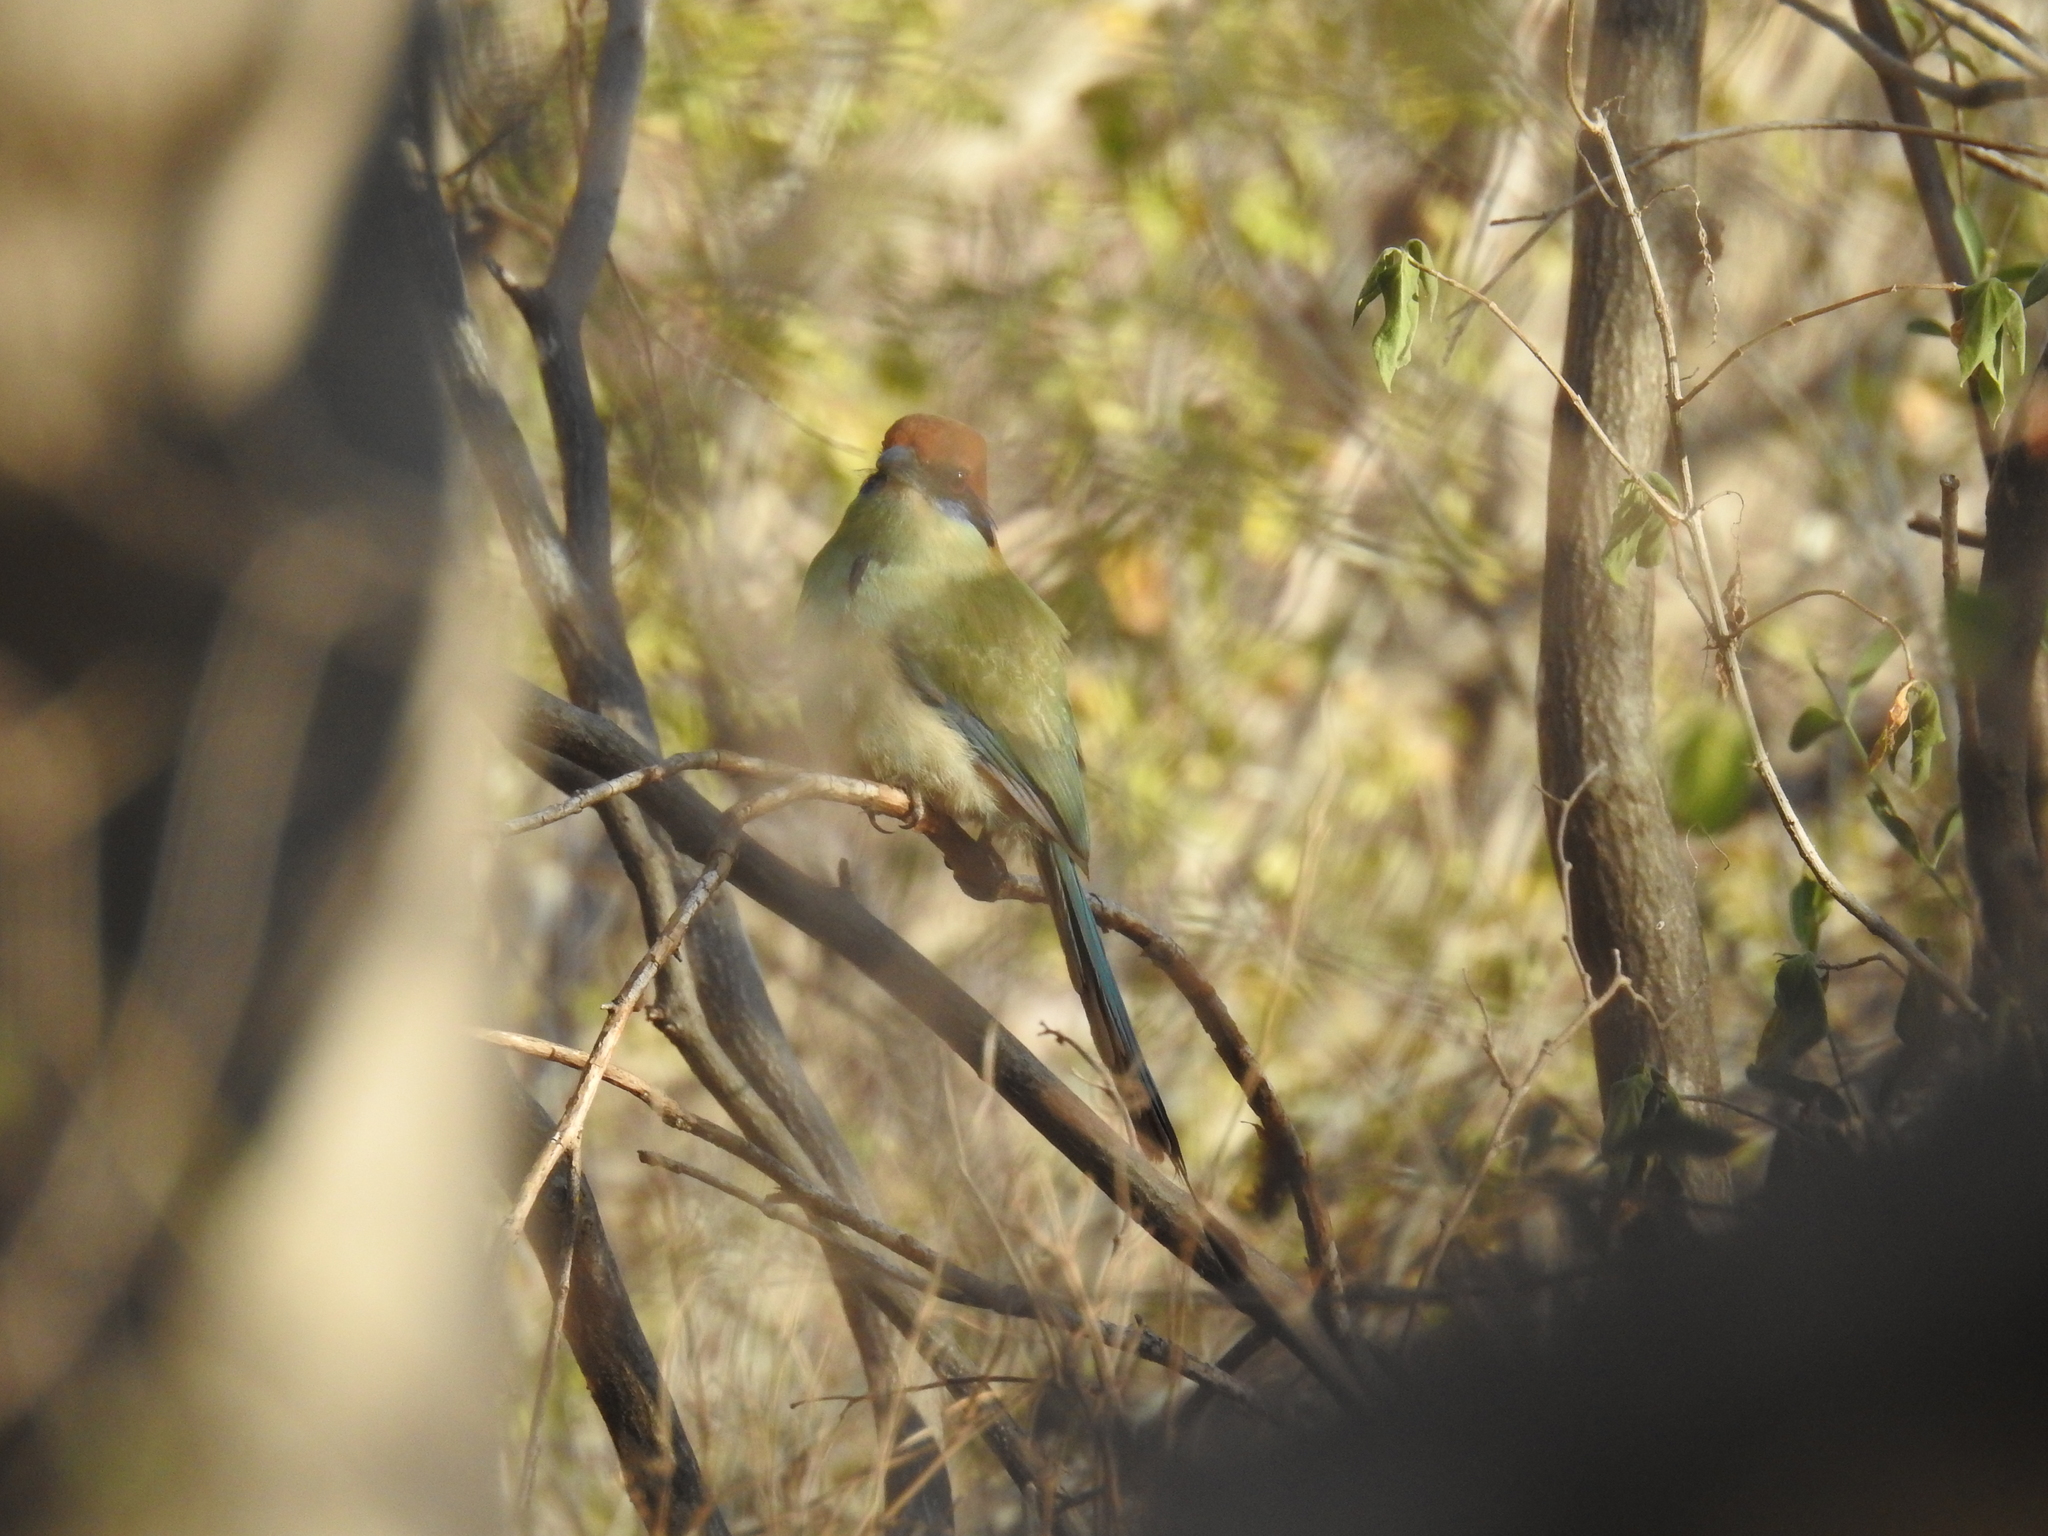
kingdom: Animalia
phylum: Chordata
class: Aves
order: Coraciiformes
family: Momotidae
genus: Momotus
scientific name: Momotus mexicanus
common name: Russet-crowned motmot
